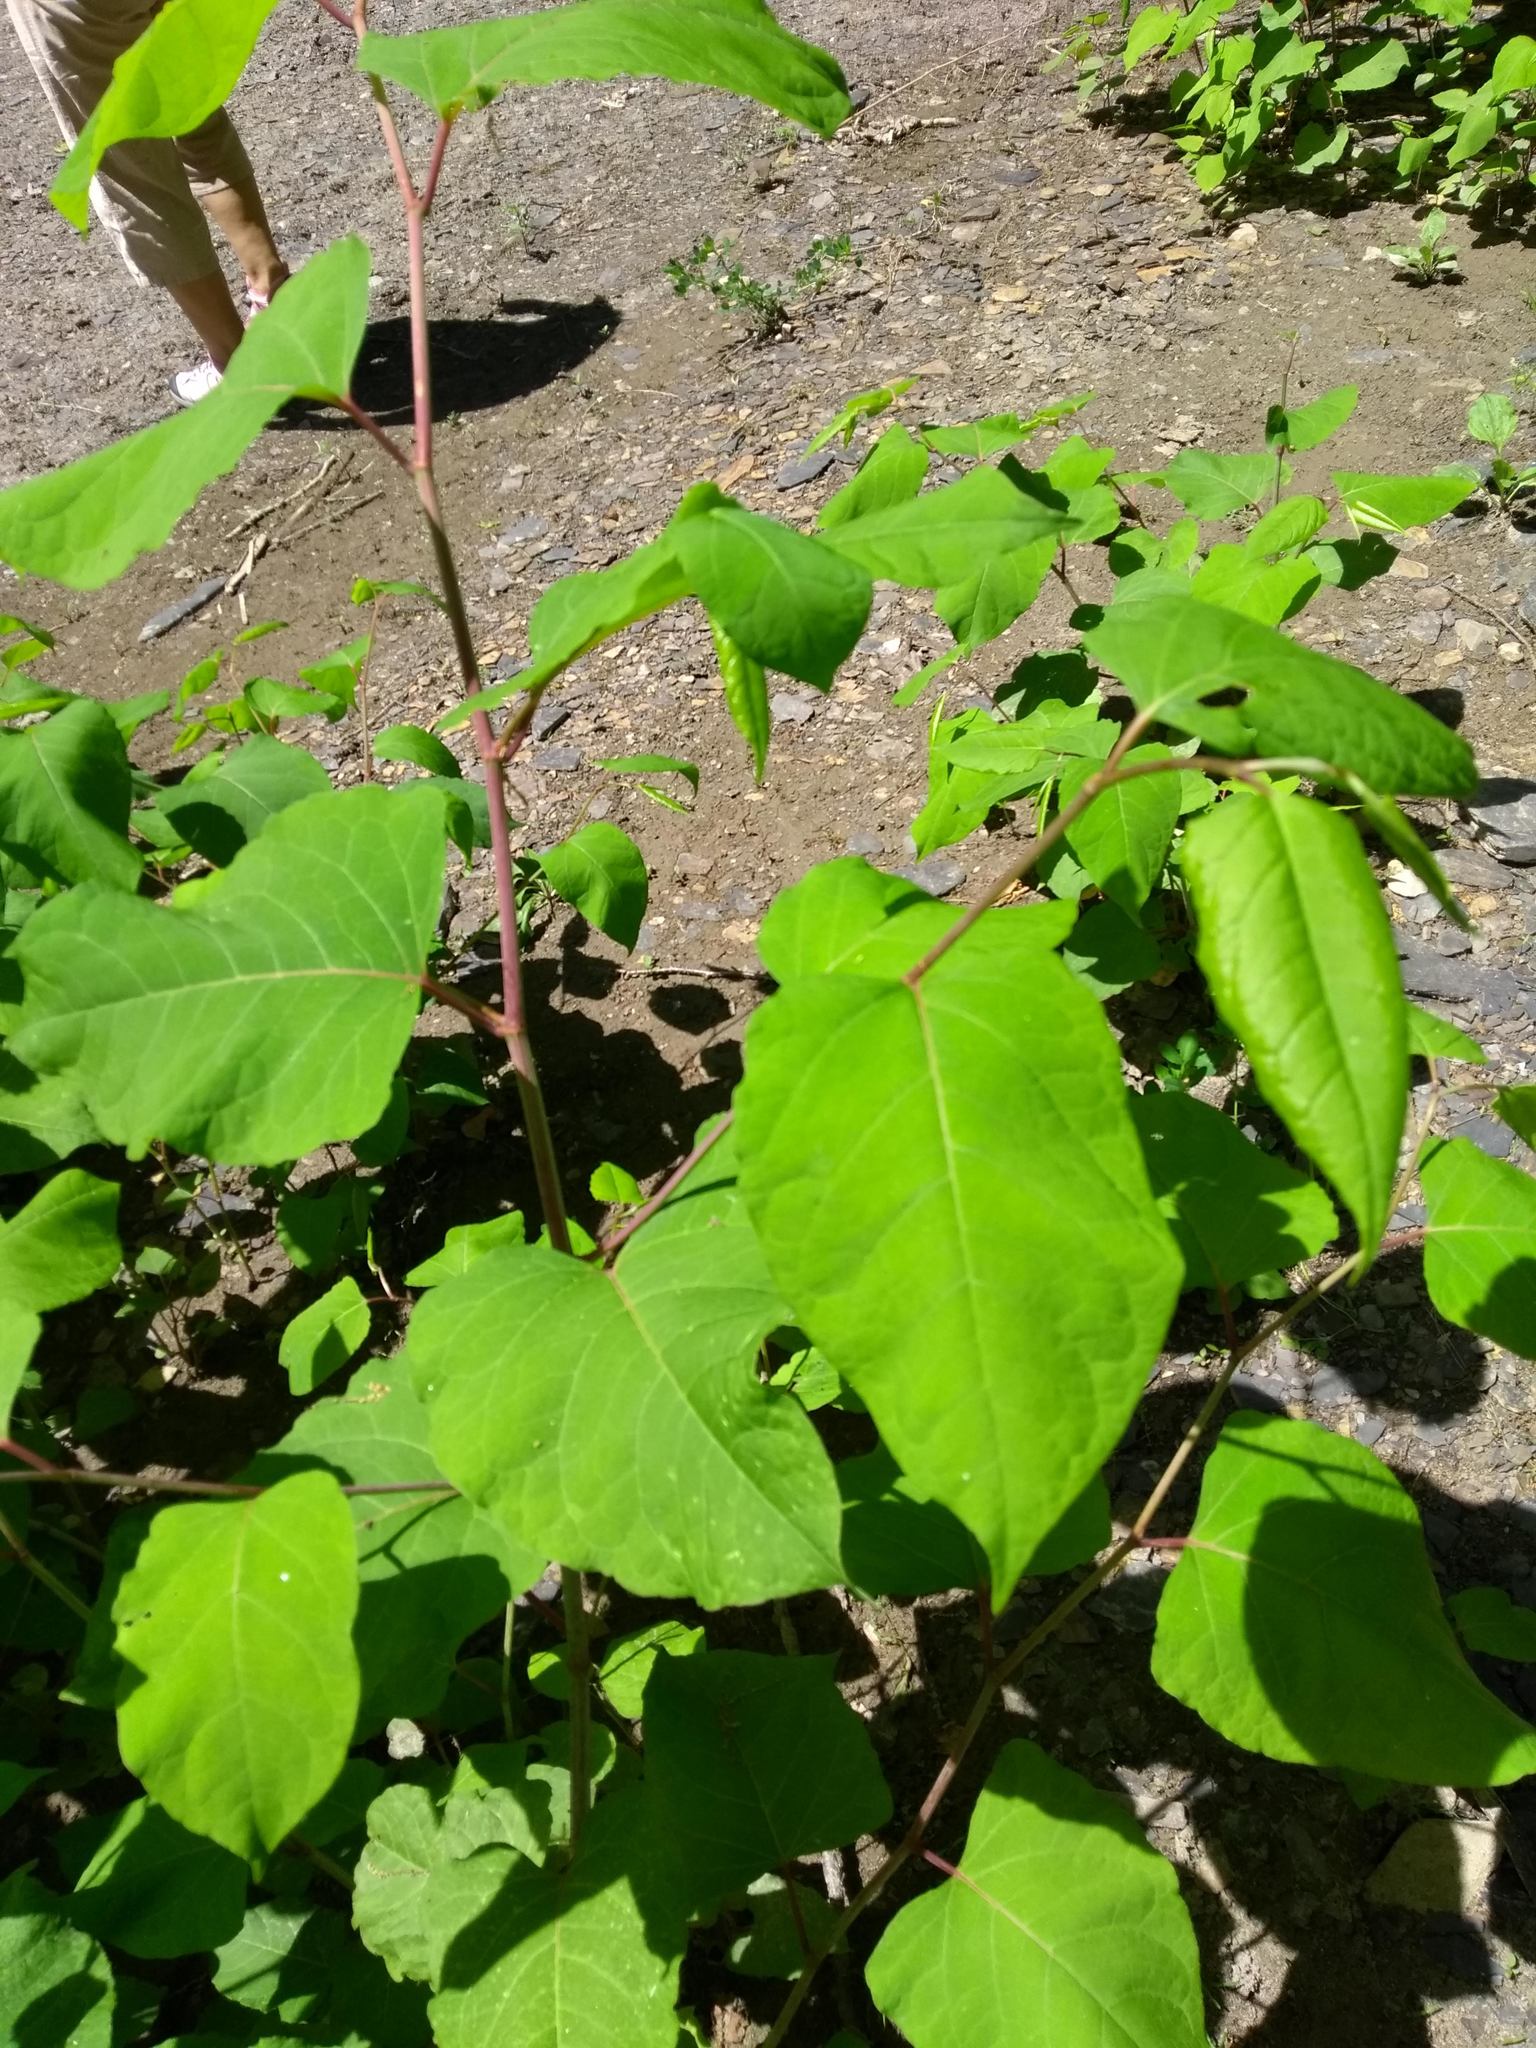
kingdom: Plantae
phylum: Tracheophyta
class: Magnoliopsida
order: Caryophyllales
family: Polygonaceae
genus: Reynoutria
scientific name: Reynoutria japonica
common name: Japanese knotweed
